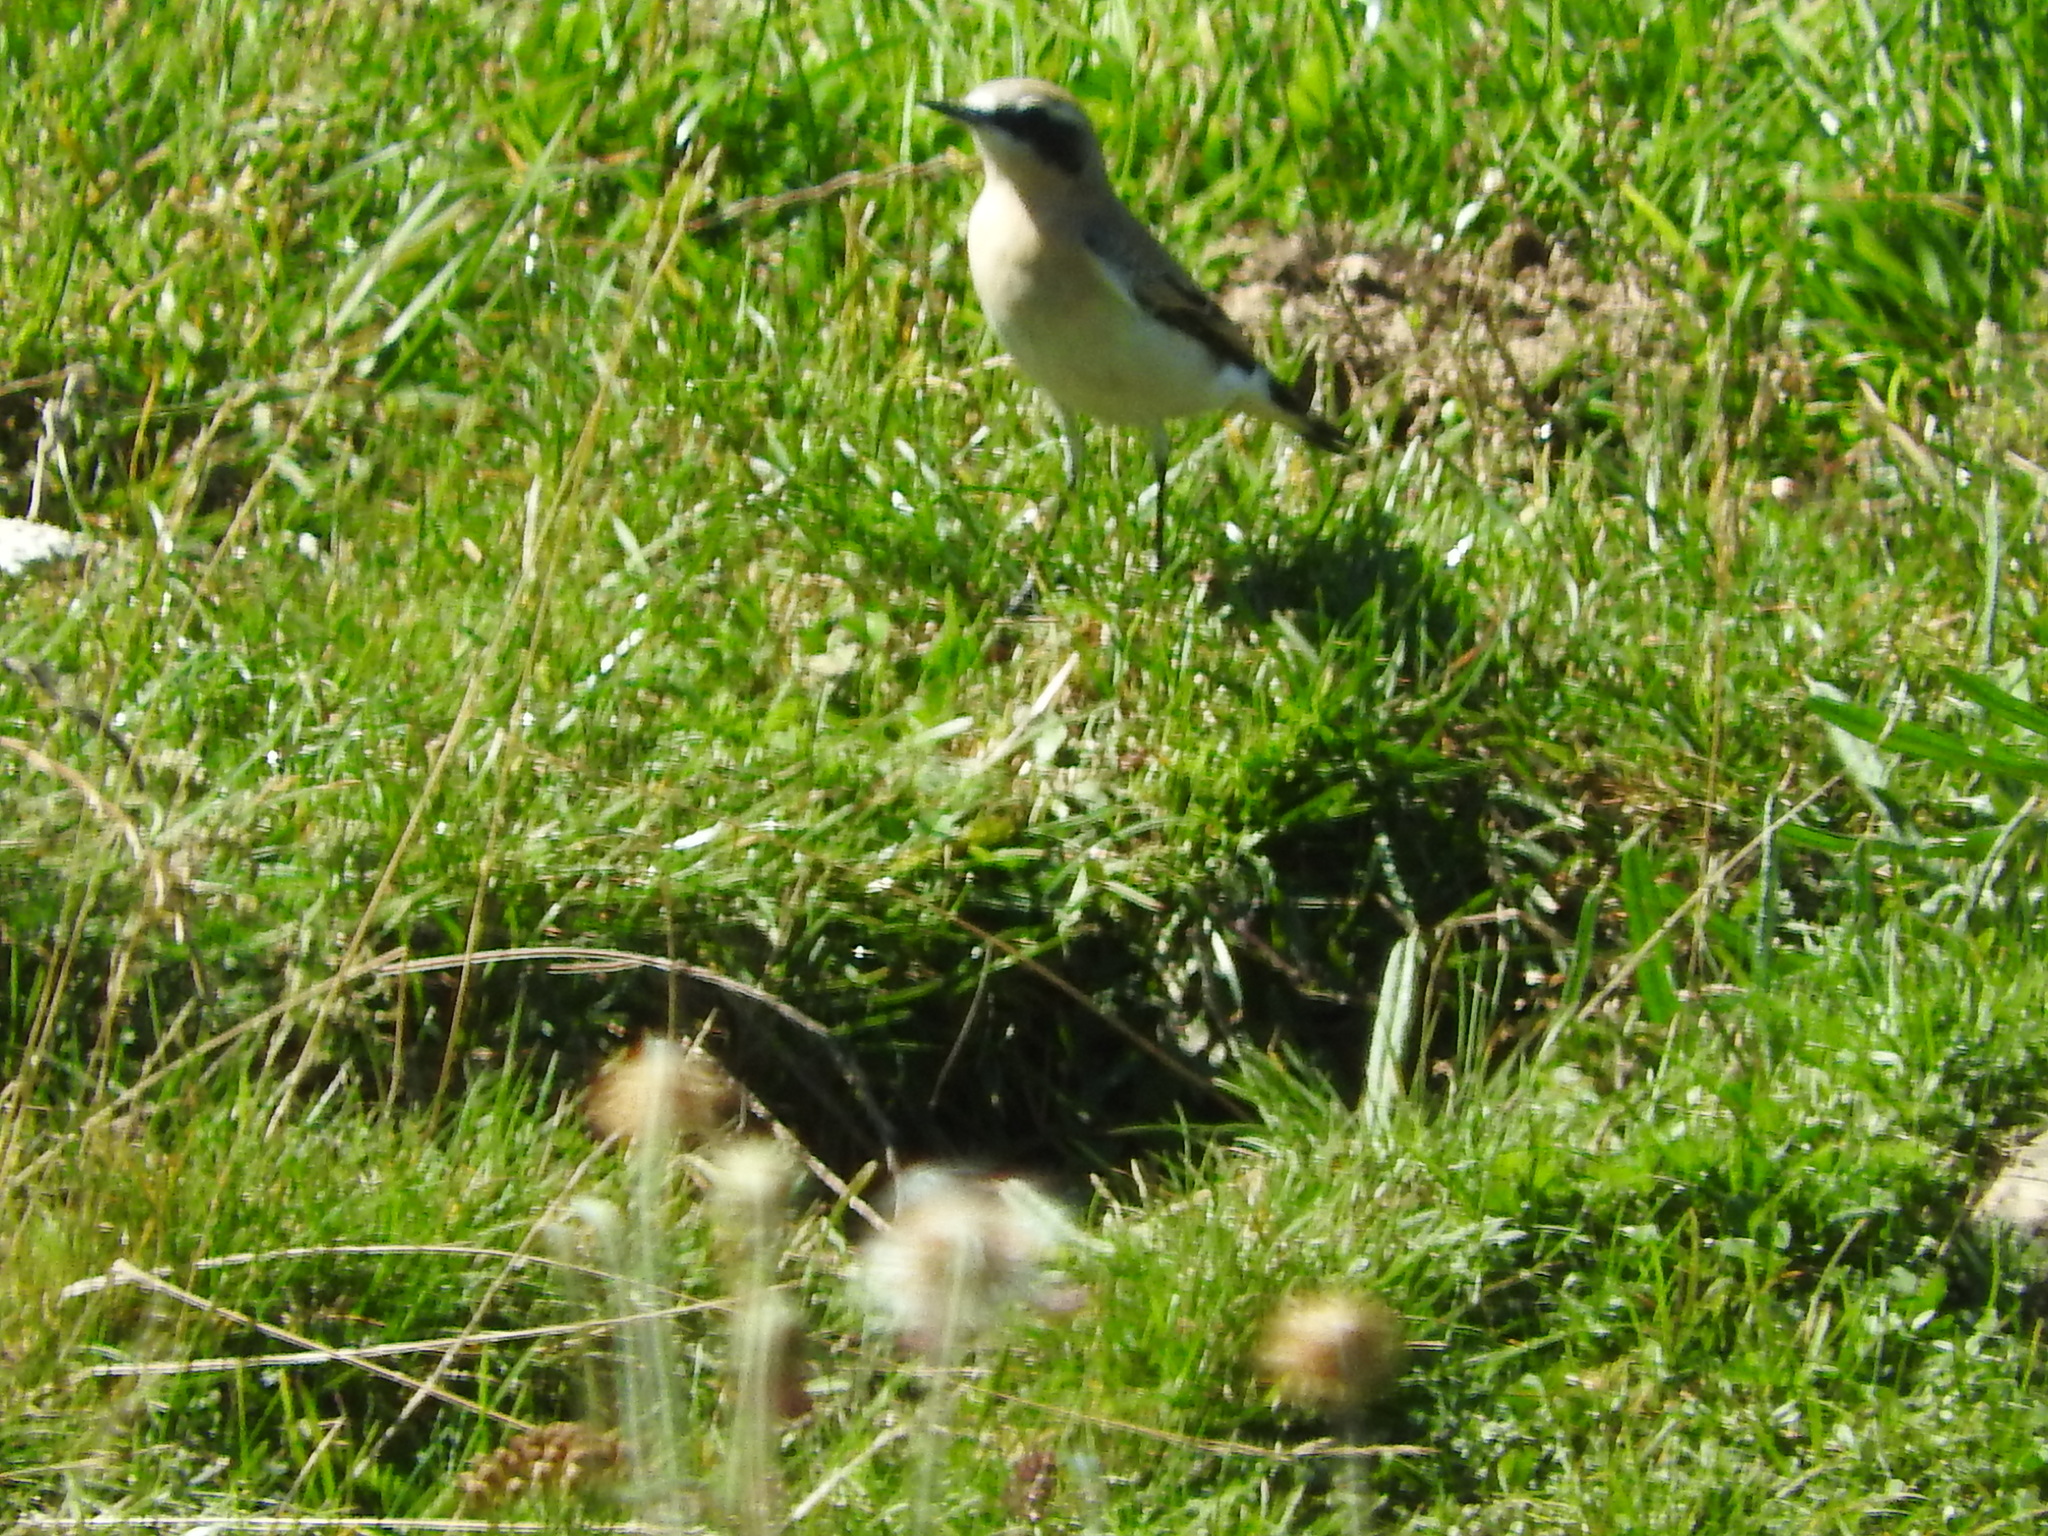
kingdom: Animalia
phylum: Chordata
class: Aves
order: Passeriformes
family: Muscicapidae
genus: Oenanthe
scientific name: Oenanthe oenanthe
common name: Northern wheatear
